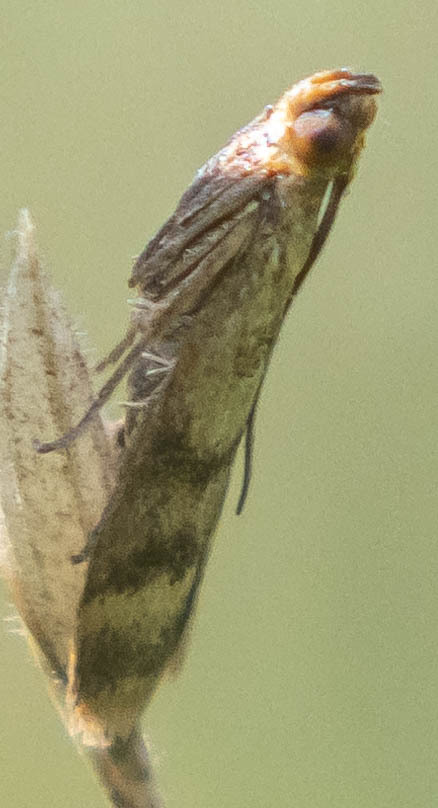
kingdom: Animalia
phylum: Arthropoda
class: Insecta
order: Lepidoptera
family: Pyralidae
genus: Homoeosoma
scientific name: Homoeosoma sinuella
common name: Twin-barred knot-horn
